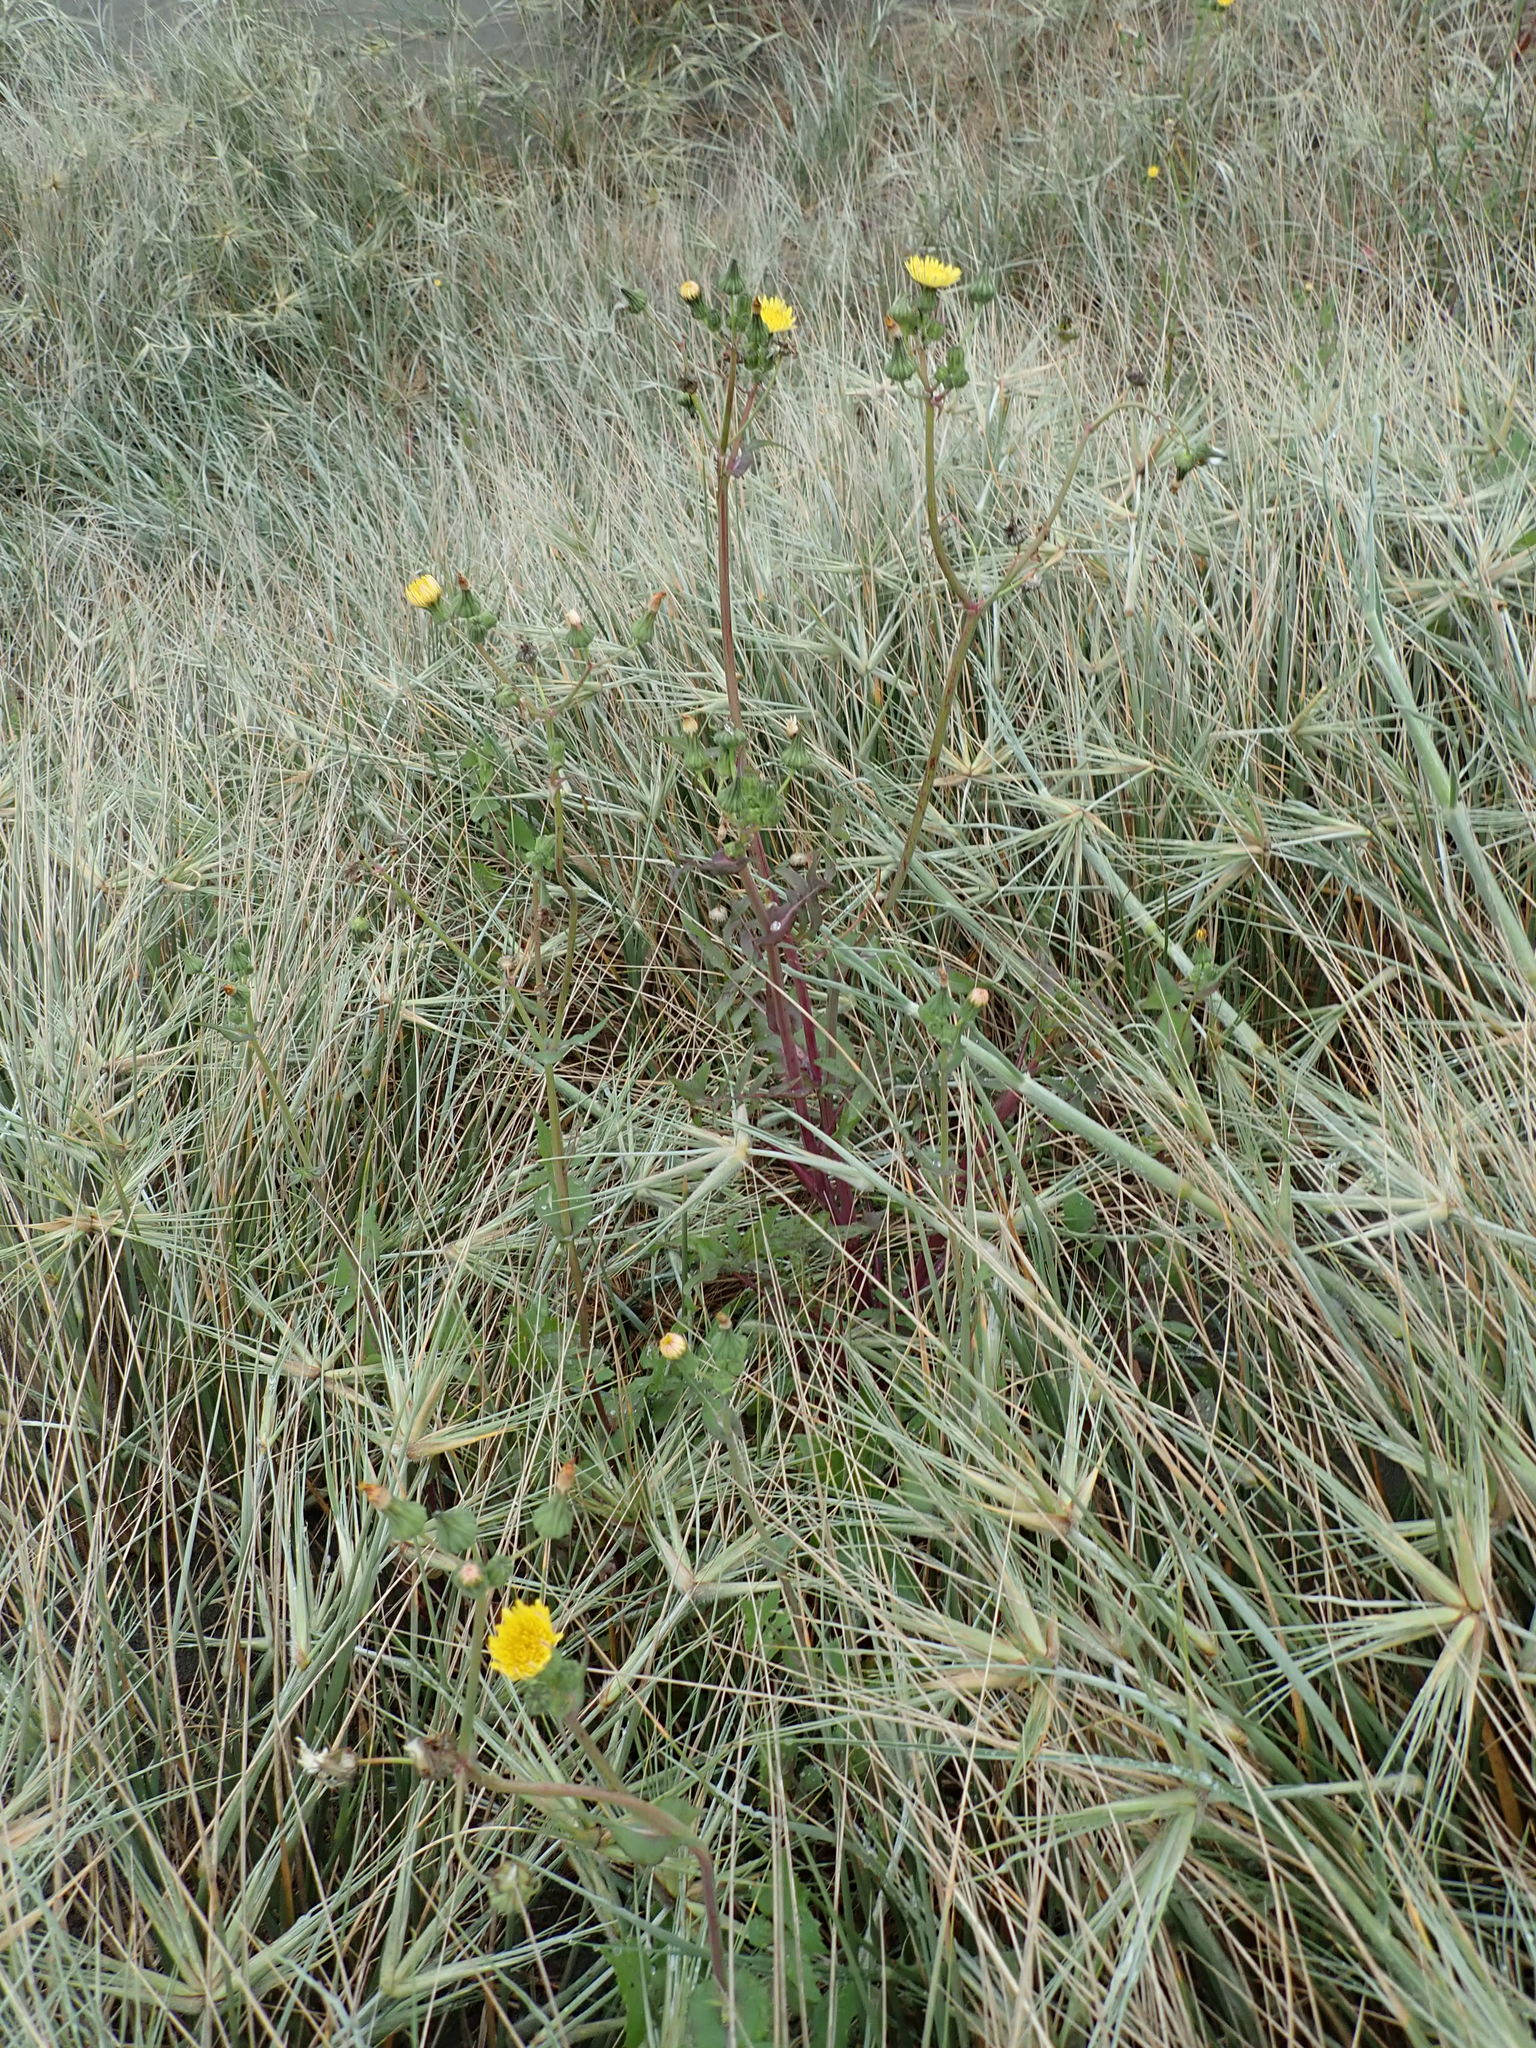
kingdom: Plantae
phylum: Tracheophyta
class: Magnoliopsida
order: Asterales
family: Asteraceae
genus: Sonchus
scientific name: Sonchus oleraceus
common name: Common sowthistle
